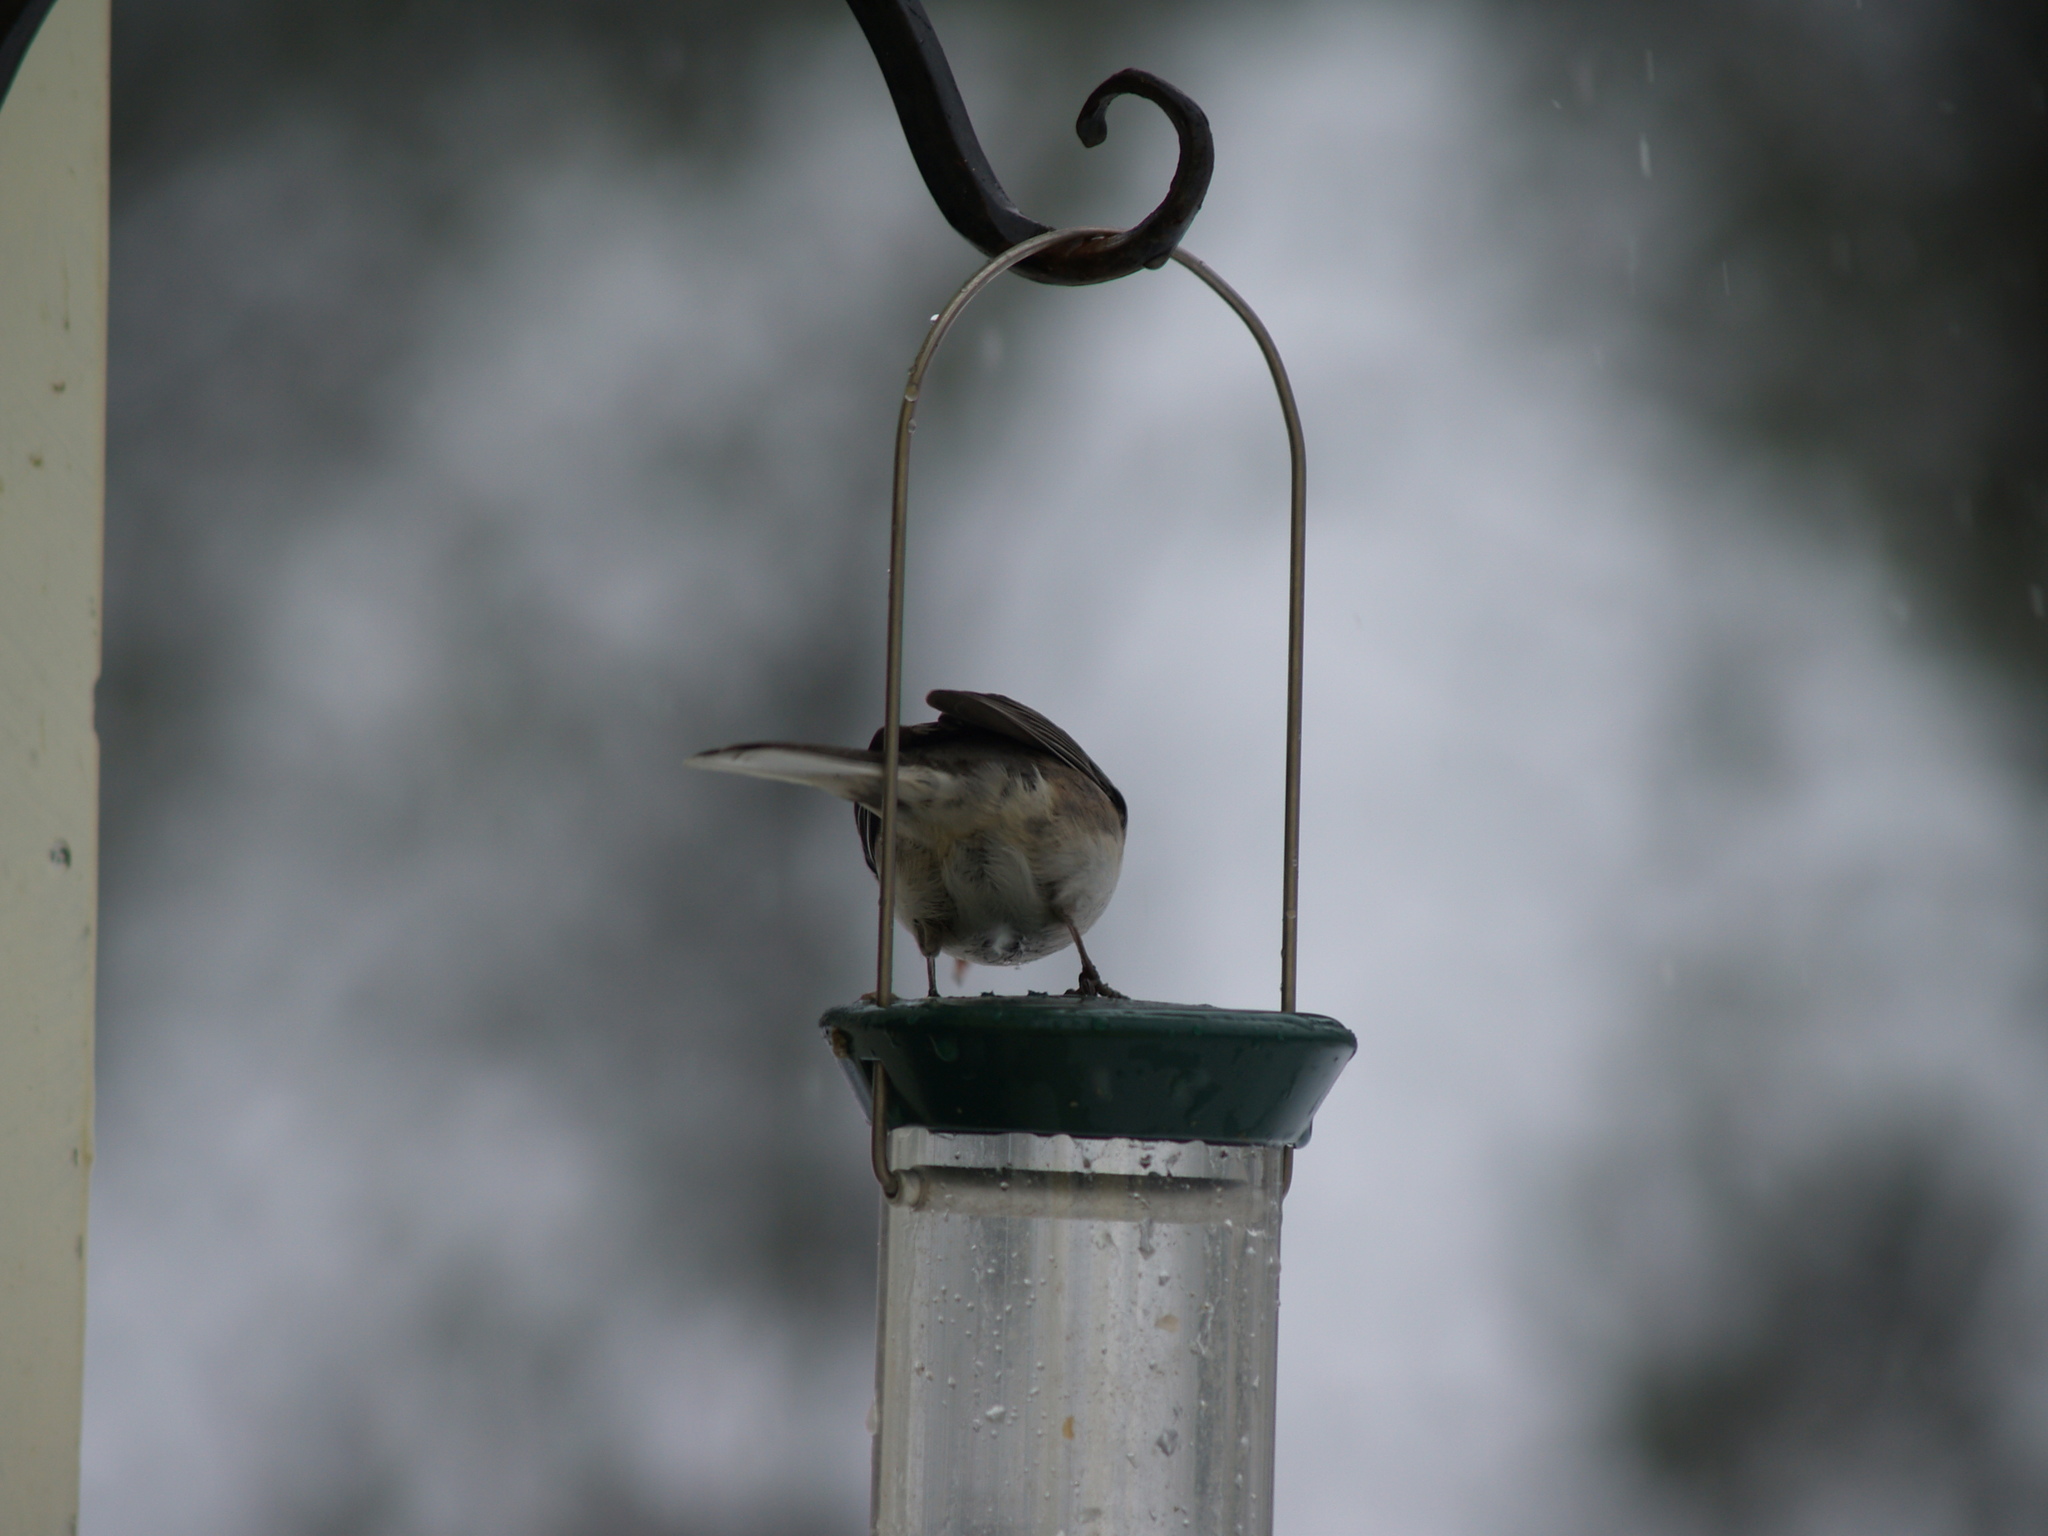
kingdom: Animalia
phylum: Chordata
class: Aves
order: Passeriformes
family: Passerellidae
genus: Junco
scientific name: Junco hyemalis
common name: Dark-eyed junco
